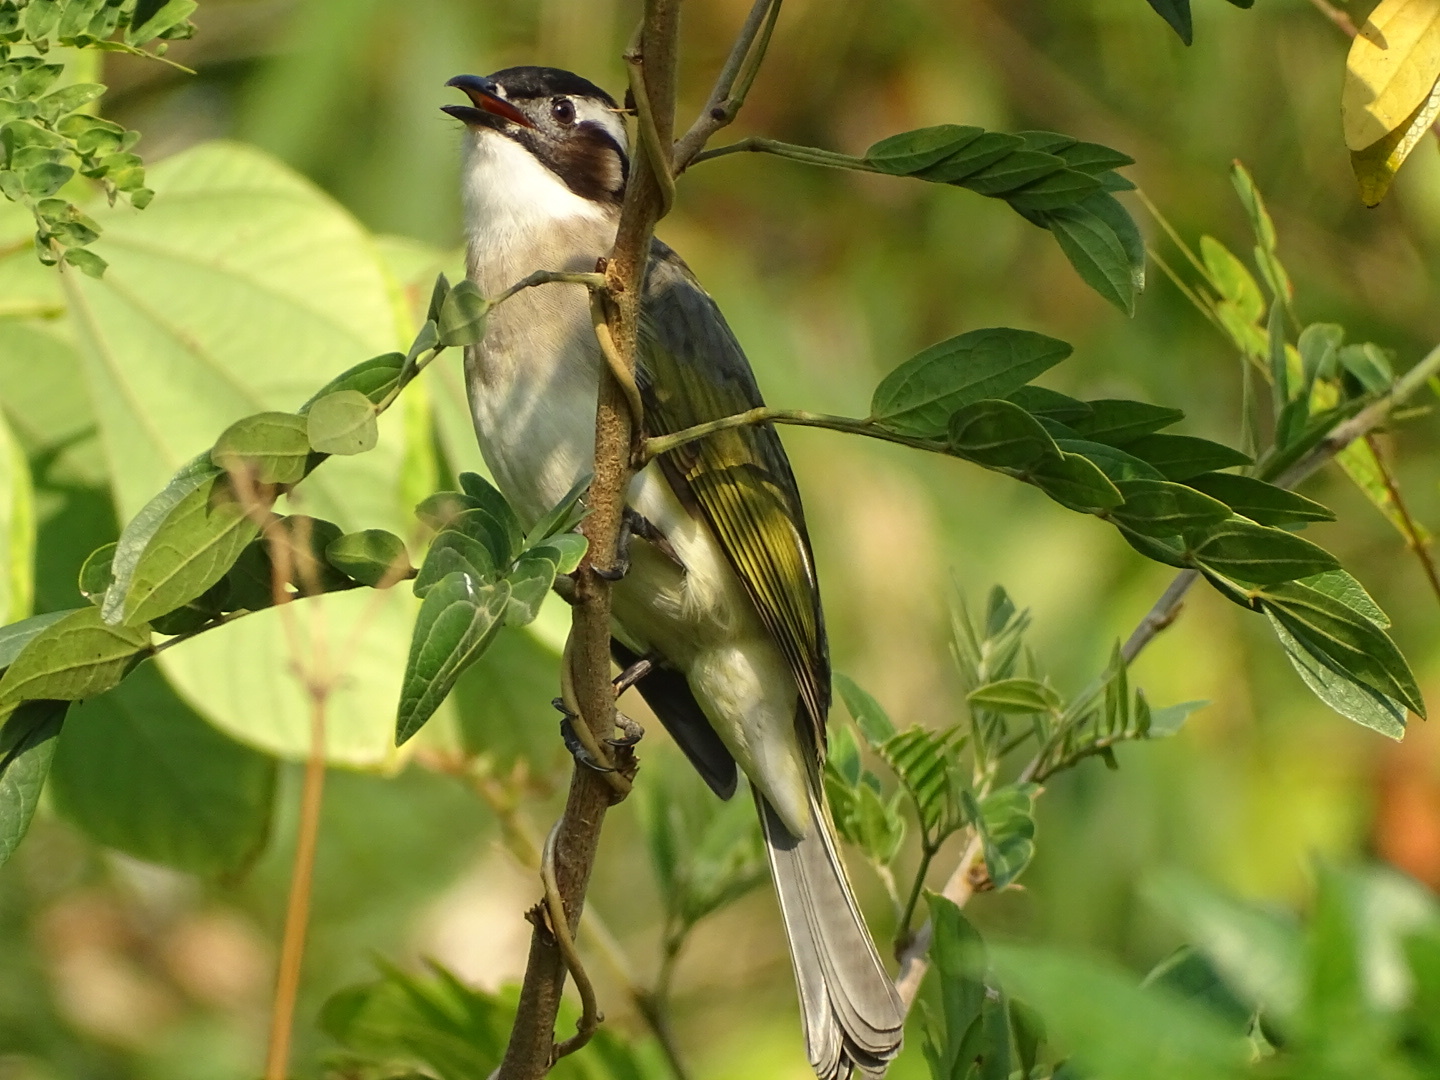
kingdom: Animalia
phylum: Chordata
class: Aves
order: Passeriformes
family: Pycnonotidae
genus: Pycnonotus
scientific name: Pycnonotus sinensis
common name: Light-vented bulbul
